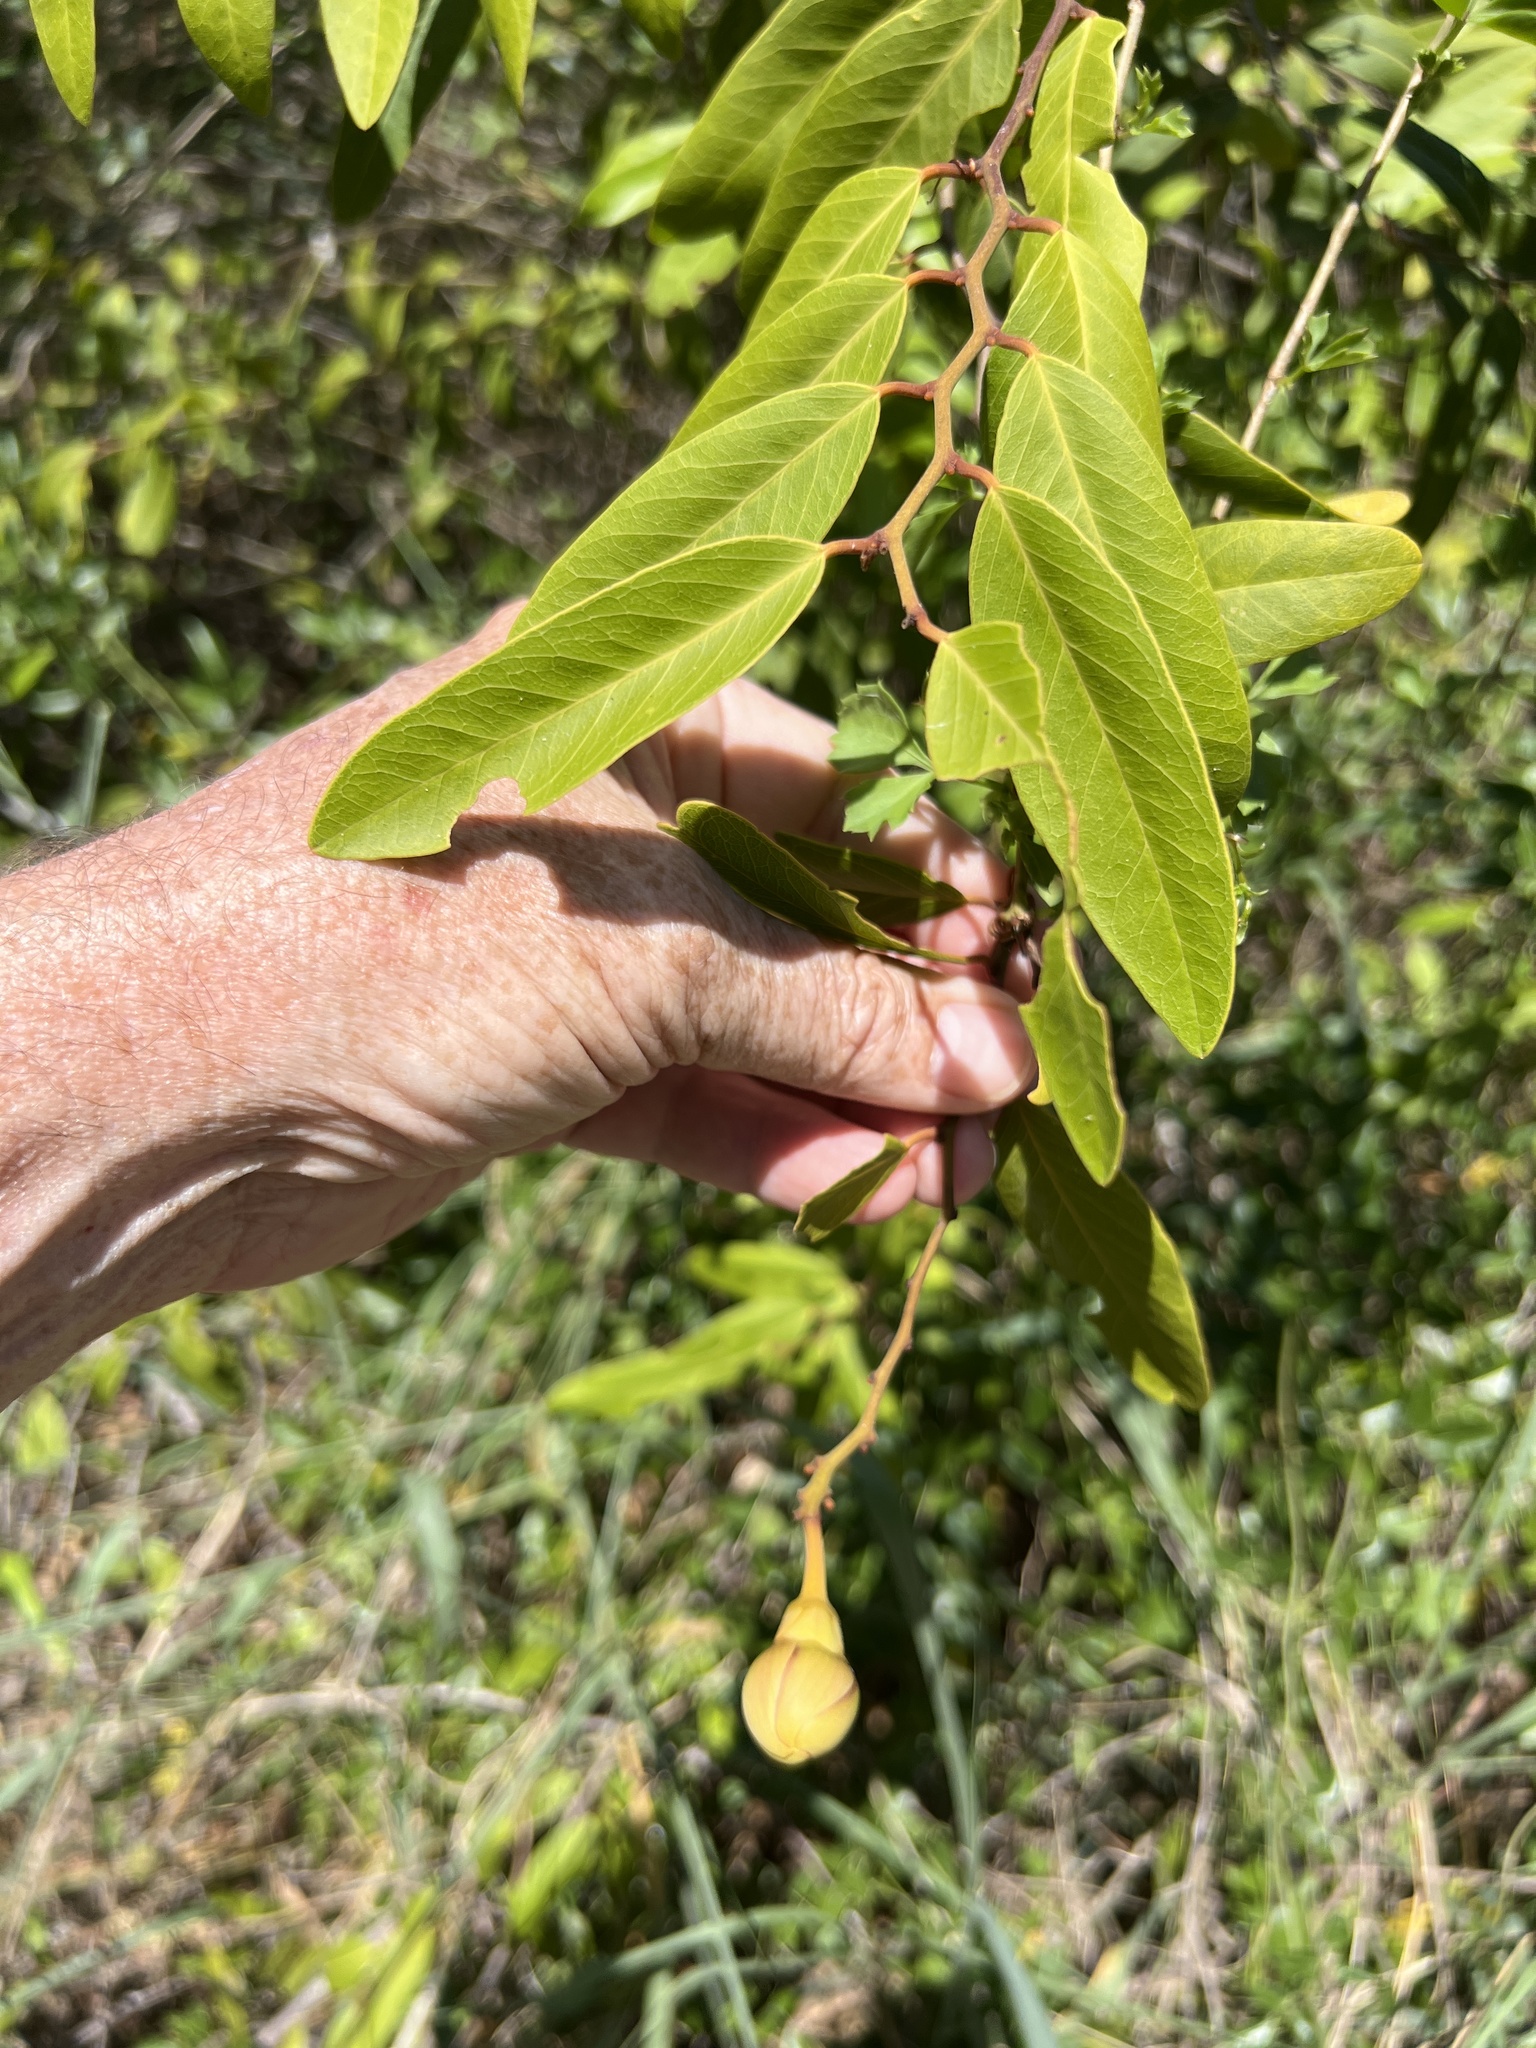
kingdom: Plantae
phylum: Tracheophyta
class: Magnoliopsida
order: Brassicales
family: Capparaceae
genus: Cynophalla
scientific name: Cynophalla flexuosa
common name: Capertree
